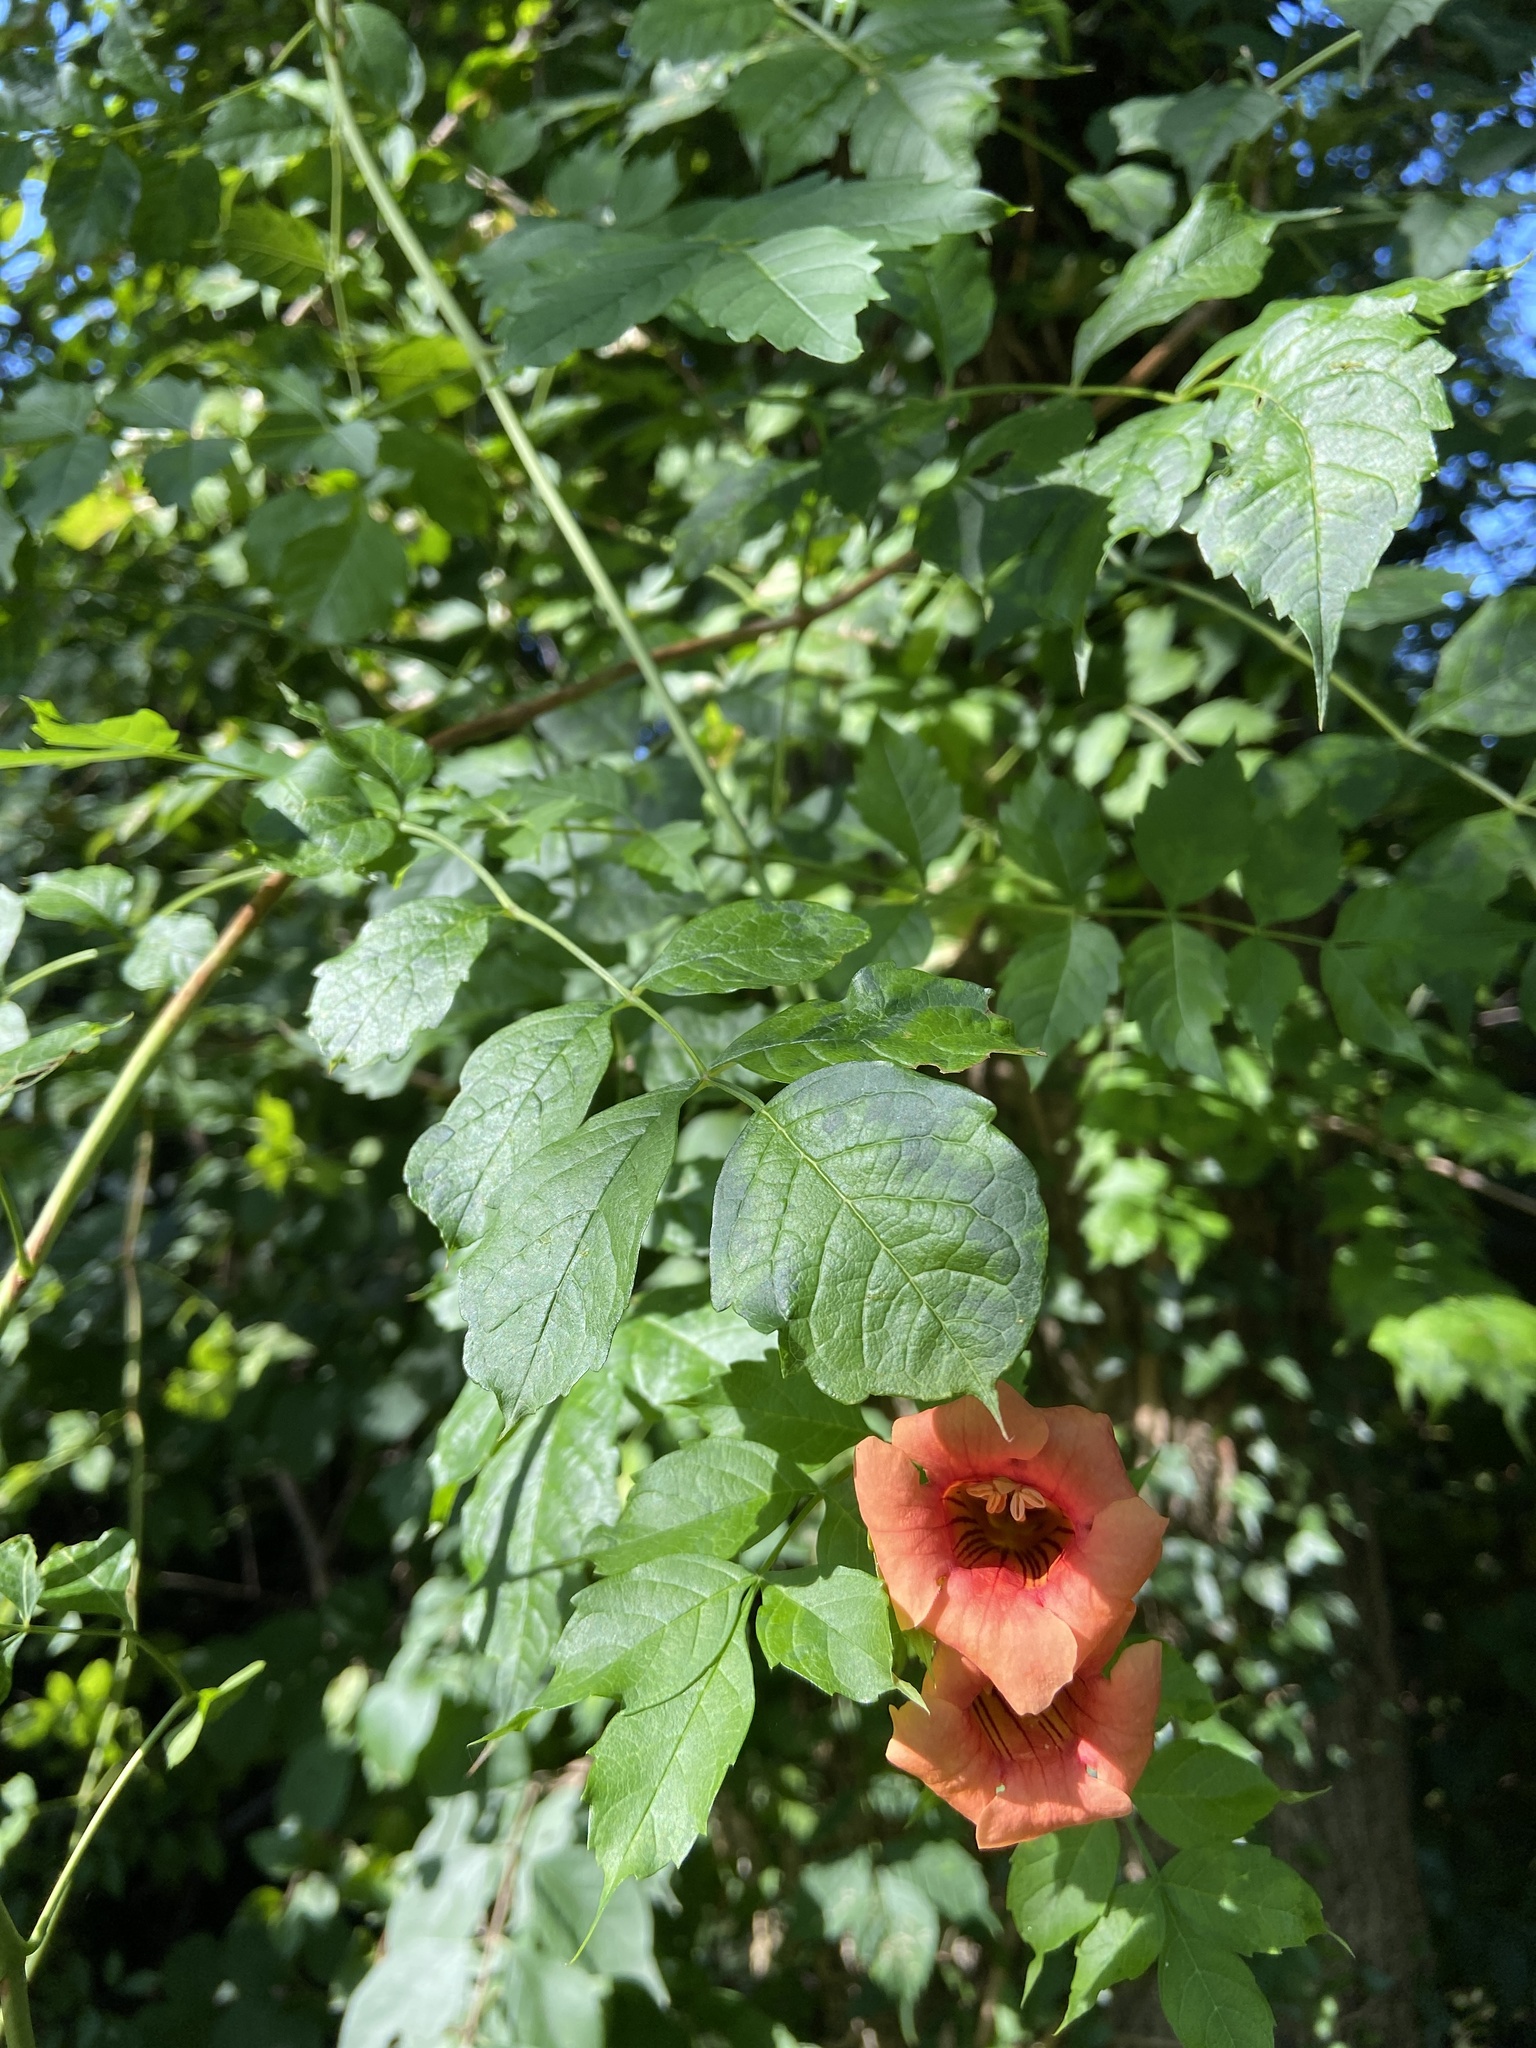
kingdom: Plantae
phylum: Tracheophyta
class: Magnoliopsida
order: Lamiales
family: Bignoniaceae
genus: Campsis
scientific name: Campsis radicans
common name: Trumpet-creeper
